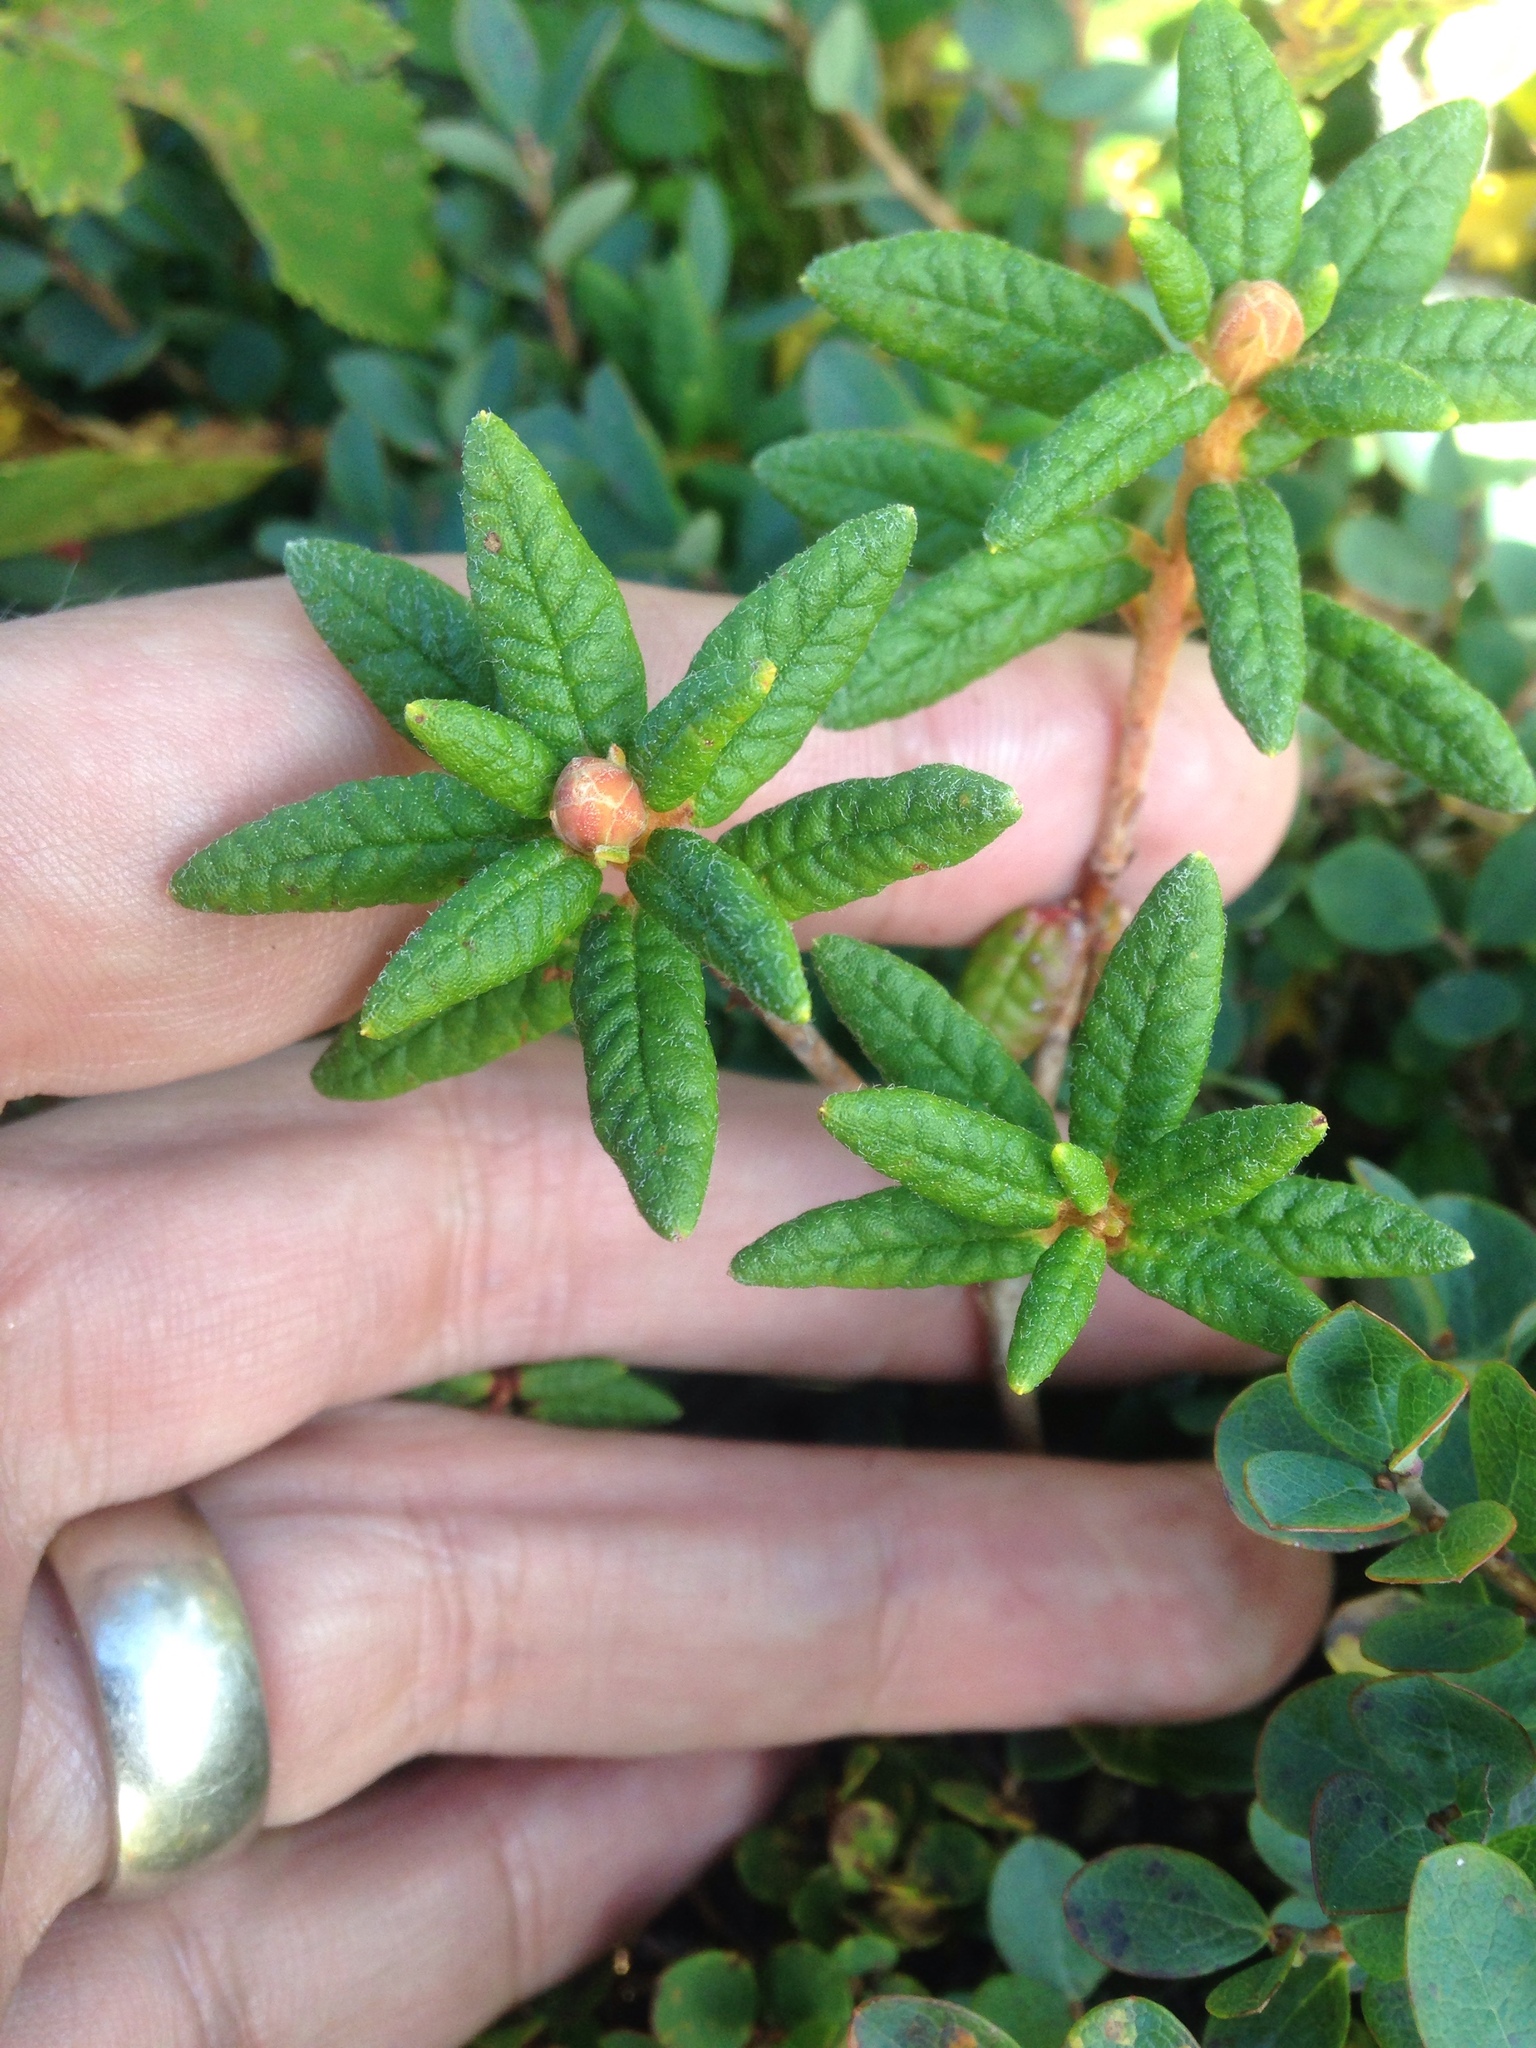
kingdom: Plantae
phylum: Tracheophyta
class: Magnoliopsida
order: Ericales
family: Ericaceae
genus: Rhododendron
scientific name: Rhododendron groenlandicum
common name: Bog labrador tea
